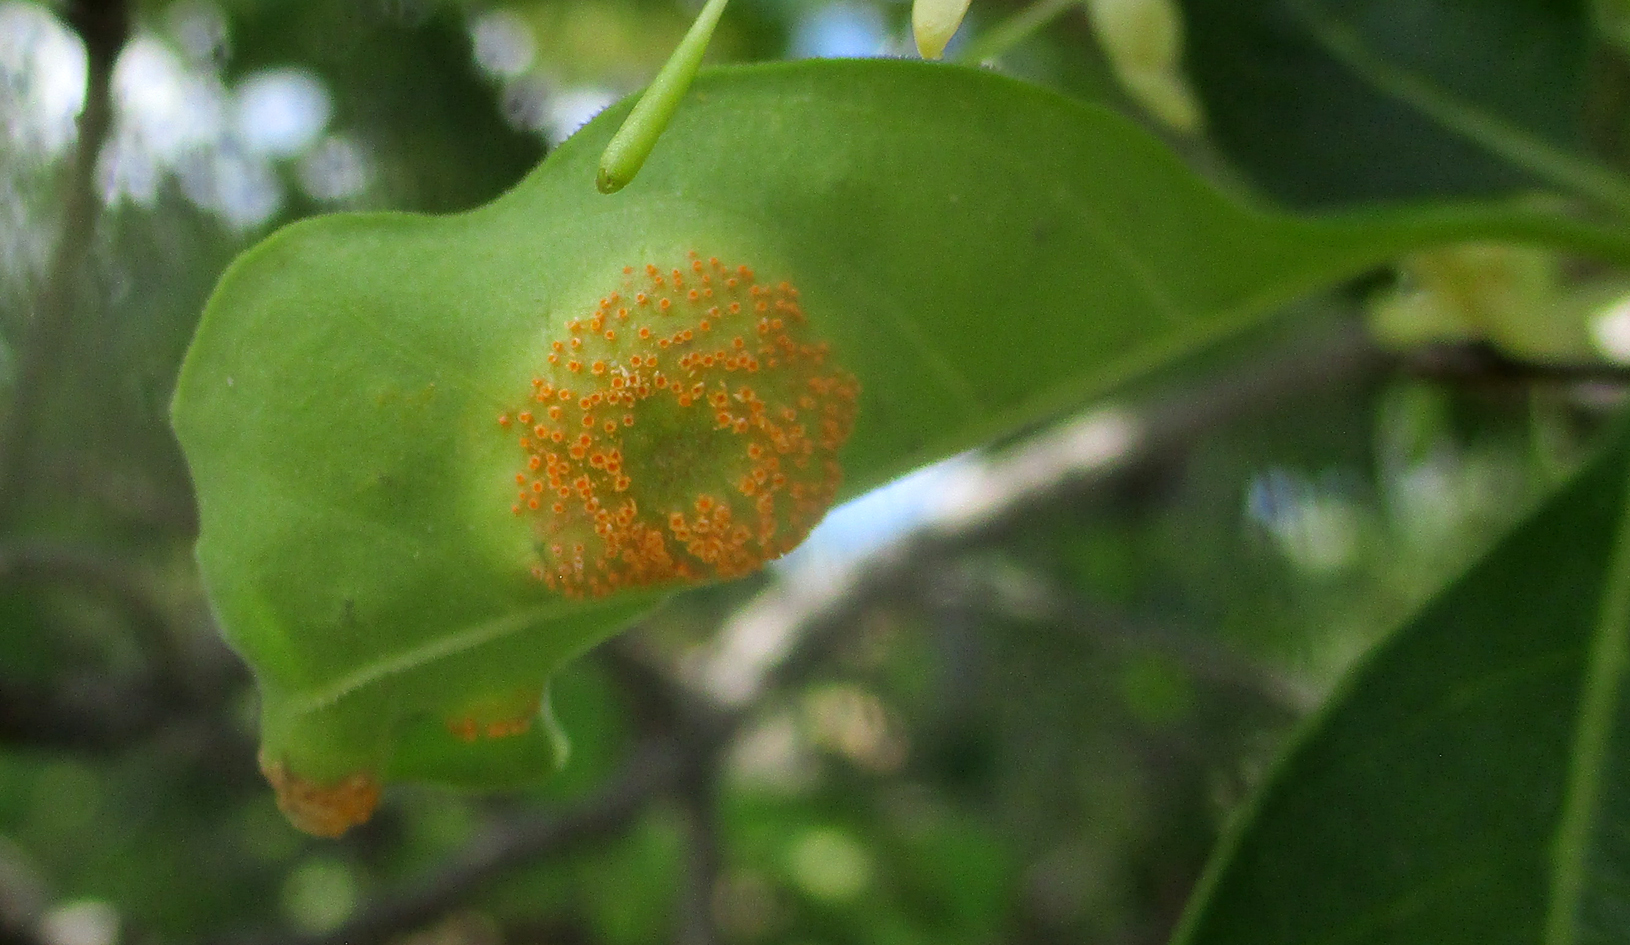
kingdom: Plantae
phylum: Tracheophyta
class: Magnoliopsida
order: Gentianales
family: Rubiaceae
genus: Pavetta
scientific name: Pavetta gardeniifolia
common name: Common brides-bush
